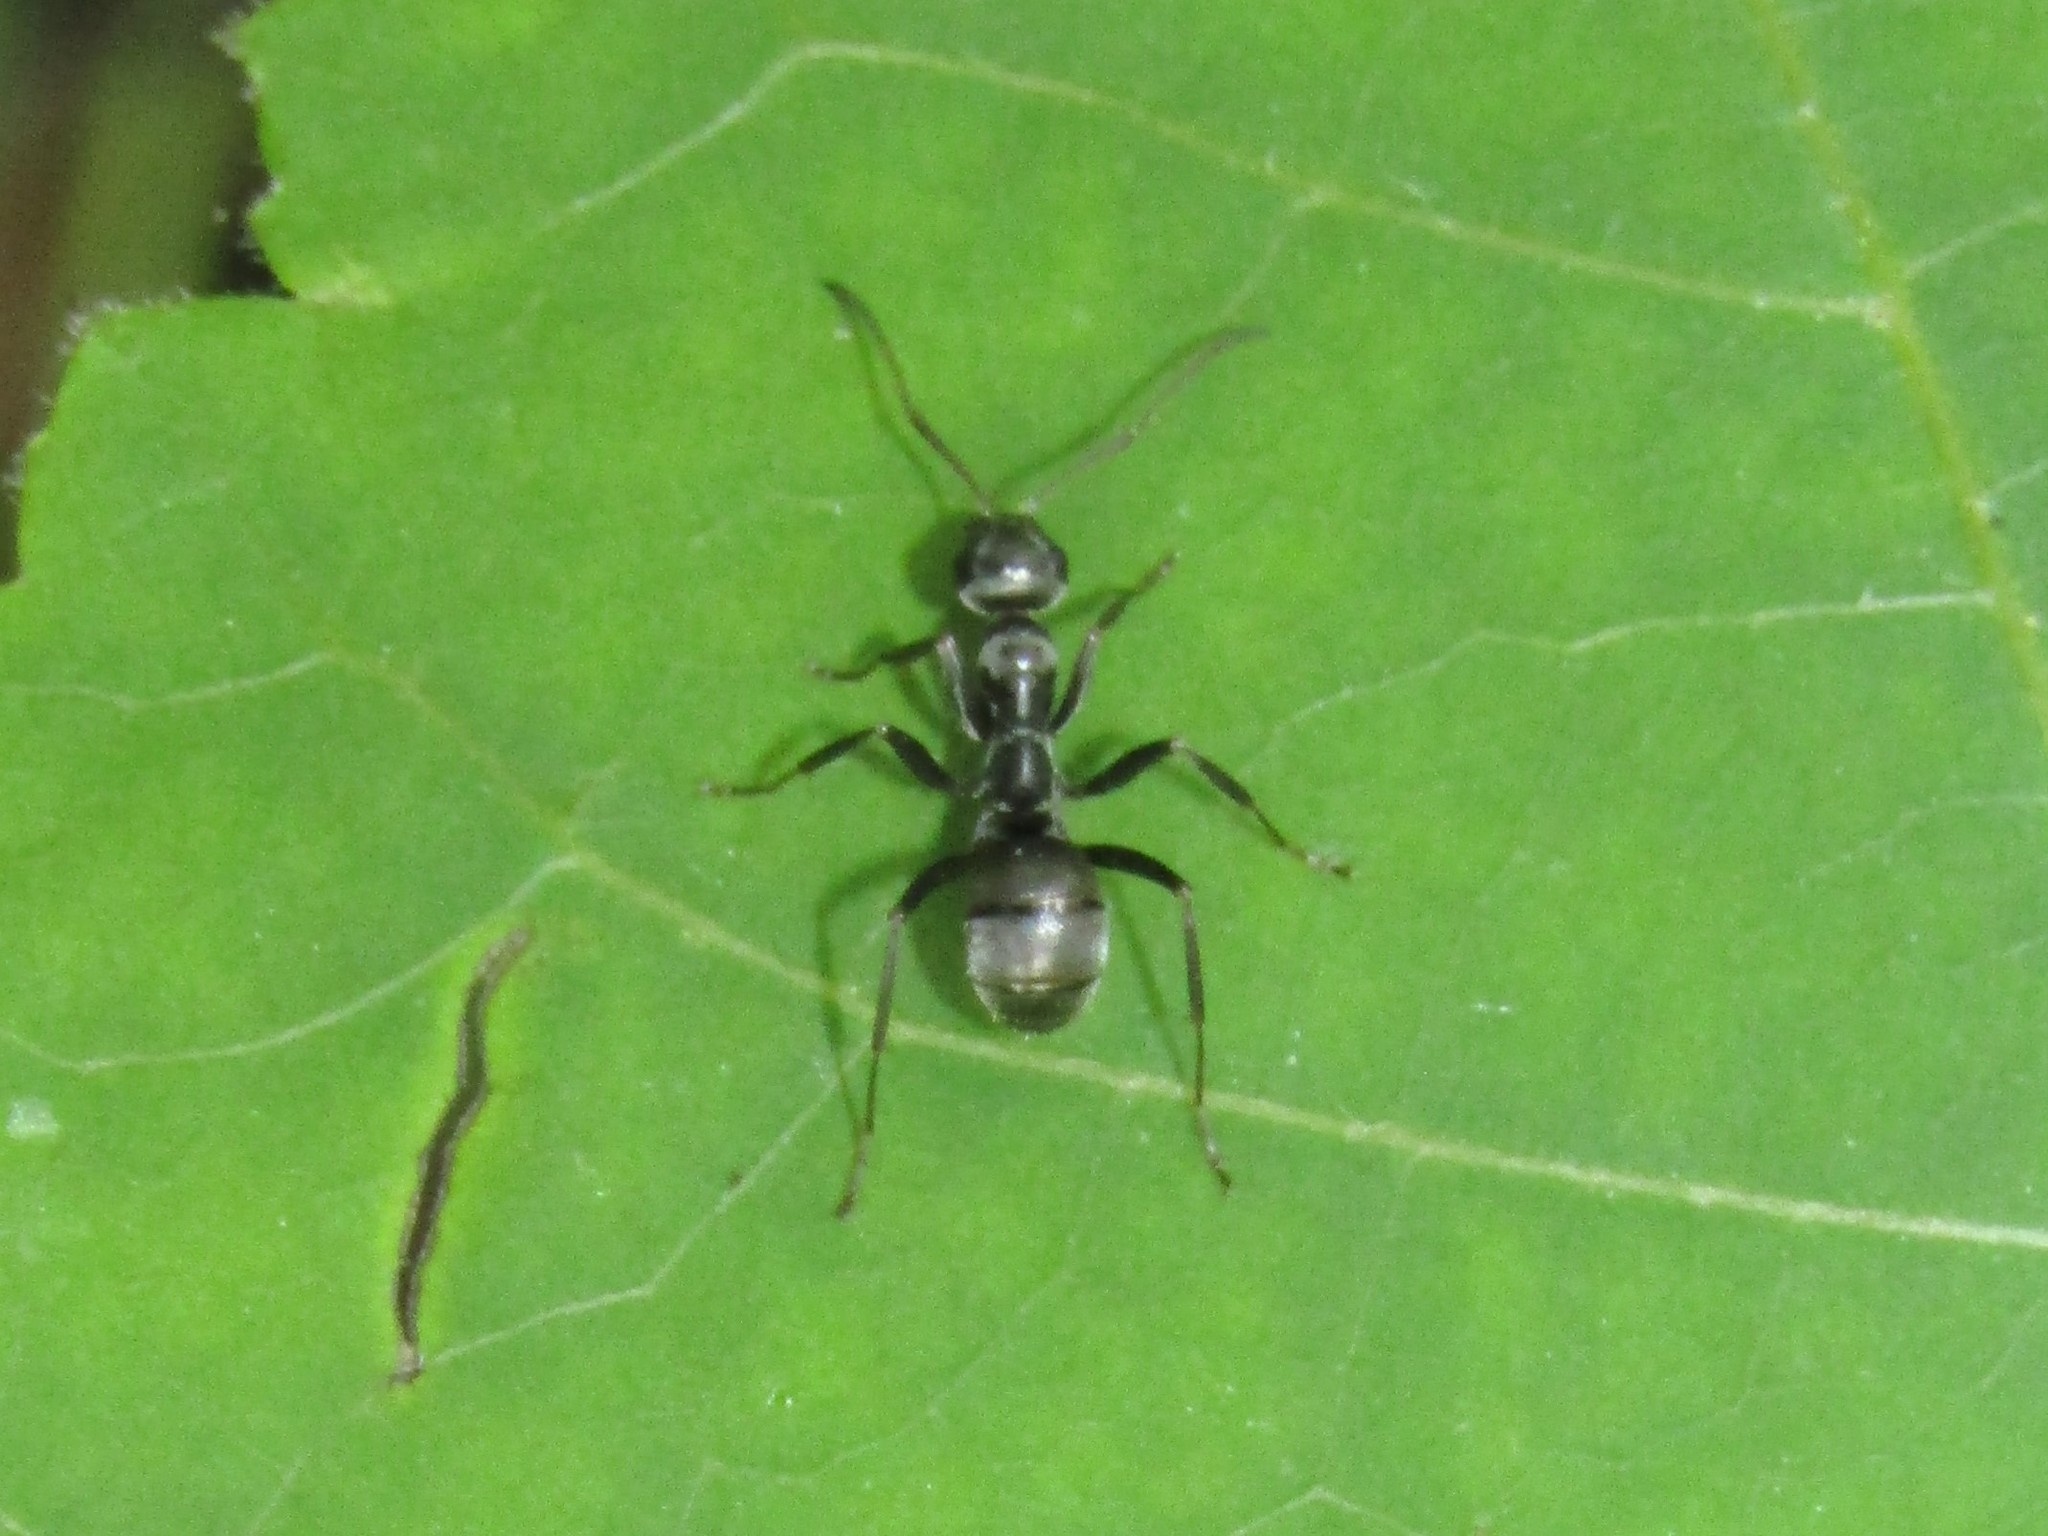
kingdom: Animalia
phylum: Arthropoda
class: Insecta
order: Hymenoptera
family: Formicidae
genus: Formica
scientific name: Formica subsericea
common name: Silky field ant
